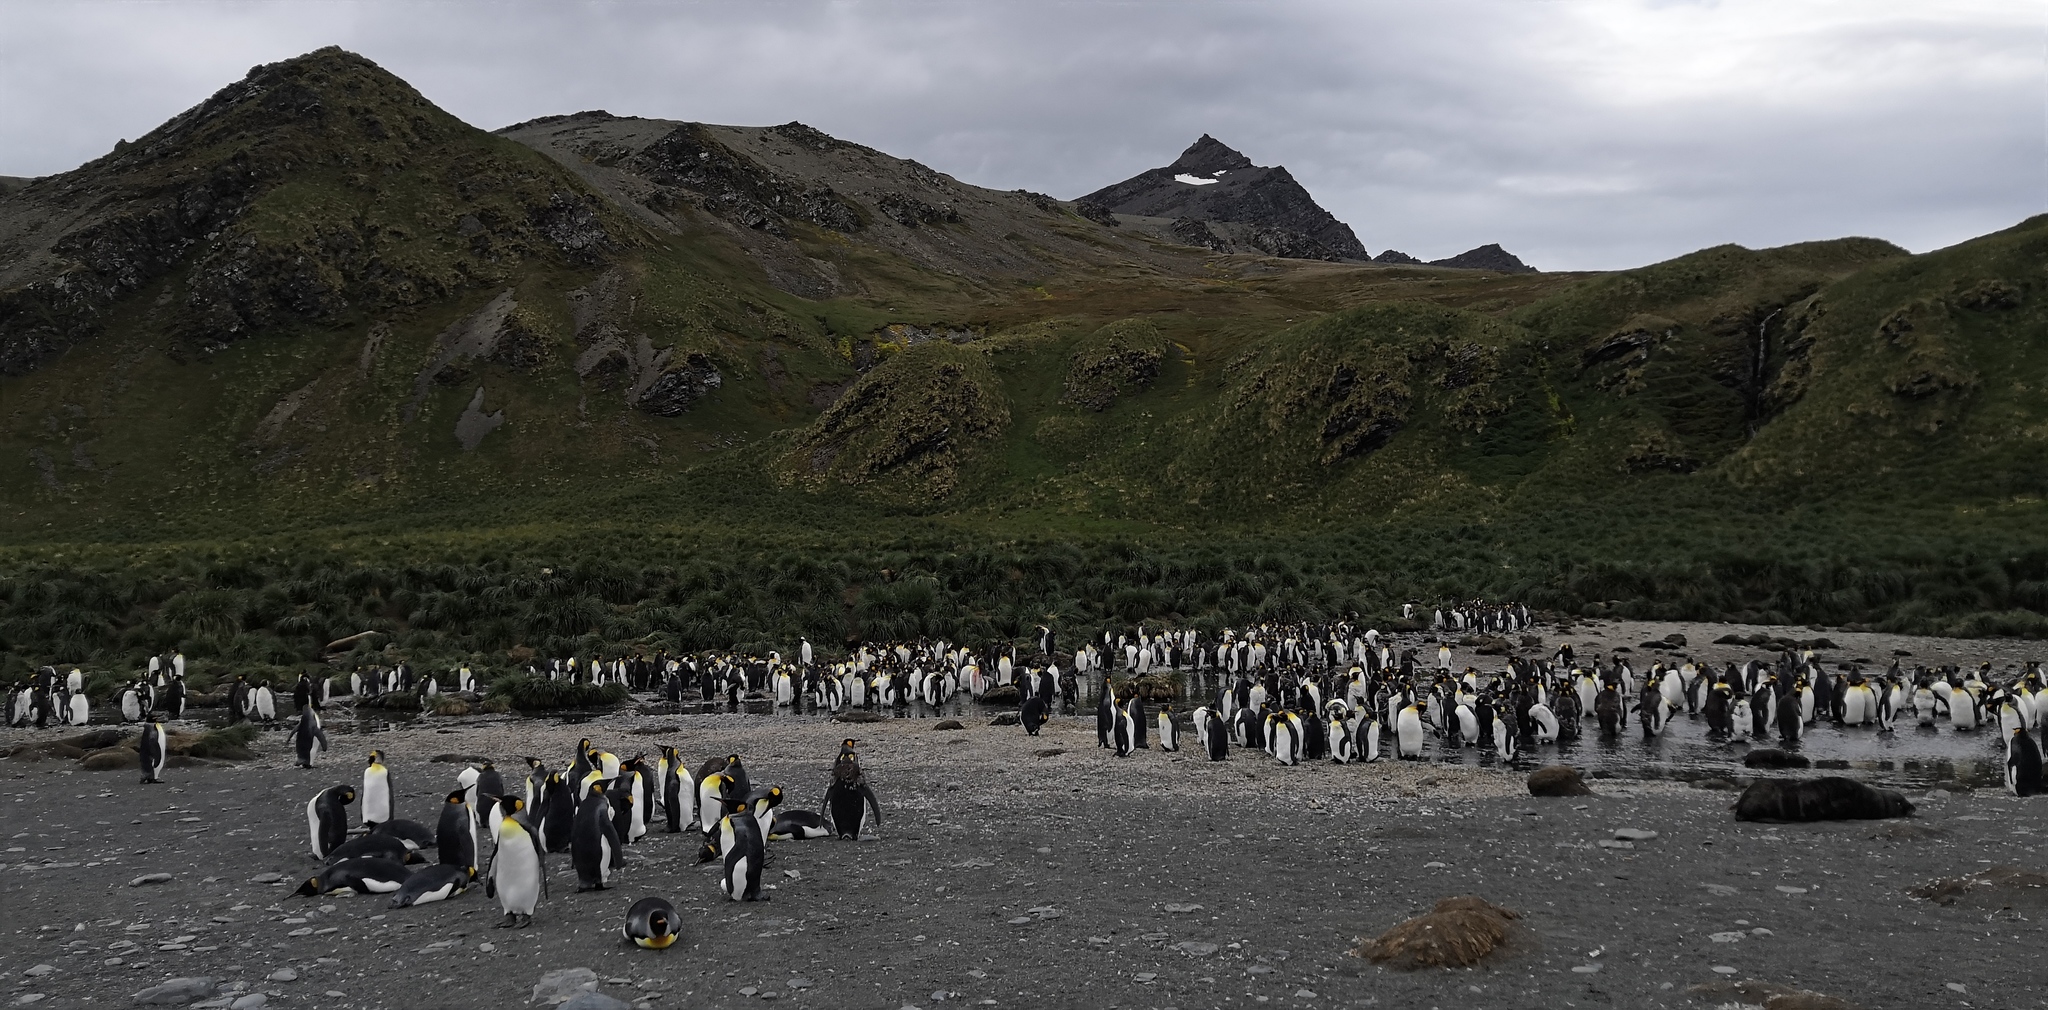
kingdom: Animalia
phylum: Chordata
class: Aves
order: Sphenisciformes
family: Spheniscidae
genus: Aptenodytes
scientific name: Aptenodytes patagonicus
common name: King penguin
